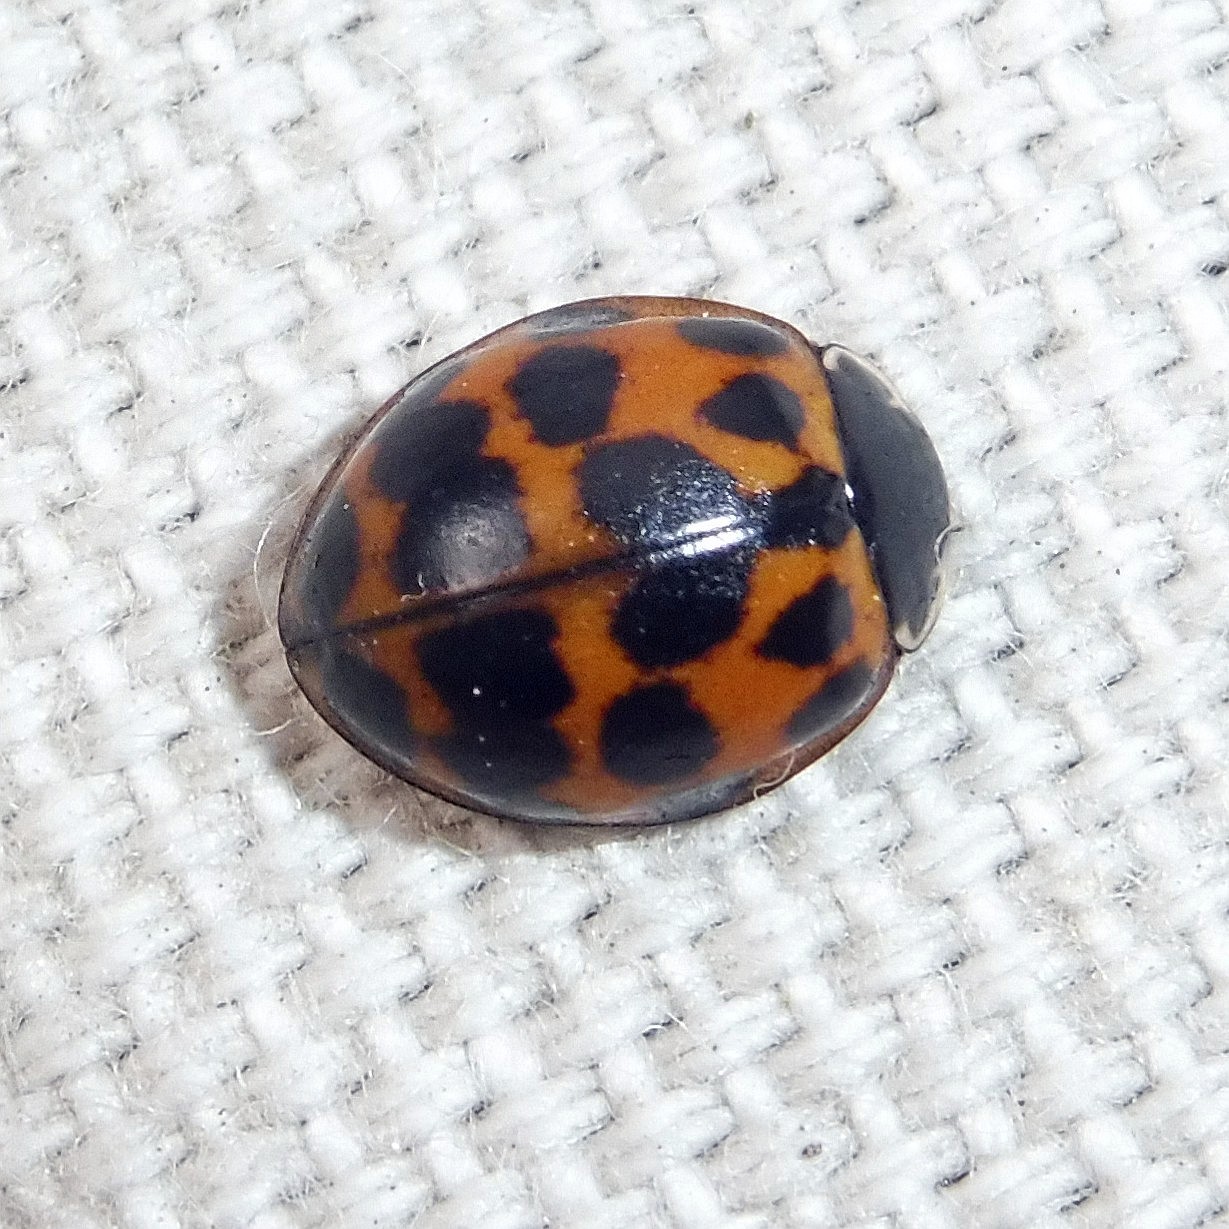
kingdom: Animalia
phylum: Arthropoda
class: Insecta
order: Coleoptera
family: Coccinellidae
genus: Harmonia
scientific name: Harmonia axyridis
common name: Harlequin ladybird
